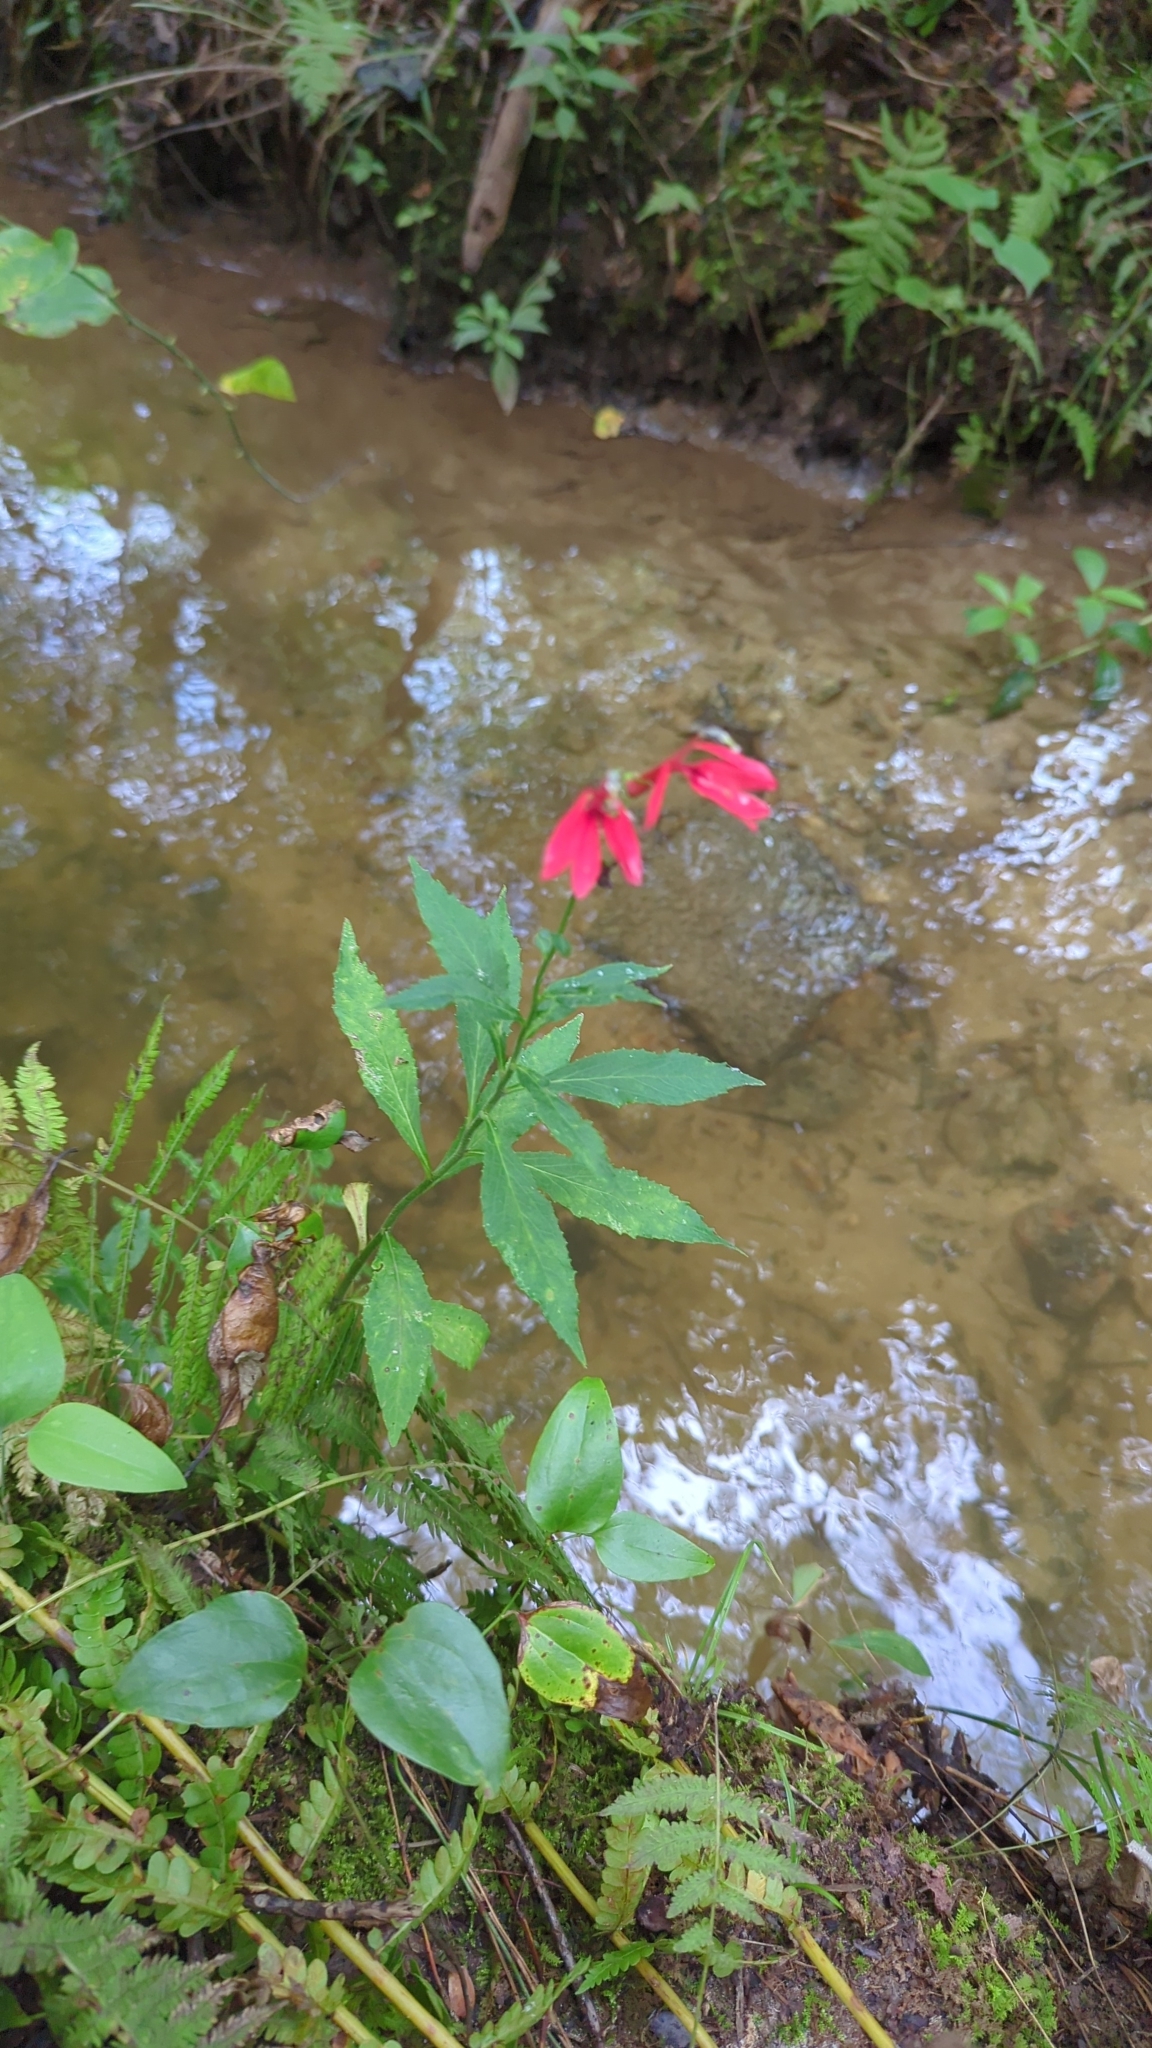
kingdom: Plantae
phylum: Tracheophyta
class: Magnoliopsida
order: Asterales
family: Campanulaceae
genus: Lobelia
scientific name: Lobelia cardinalis
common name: Cardinal flower
